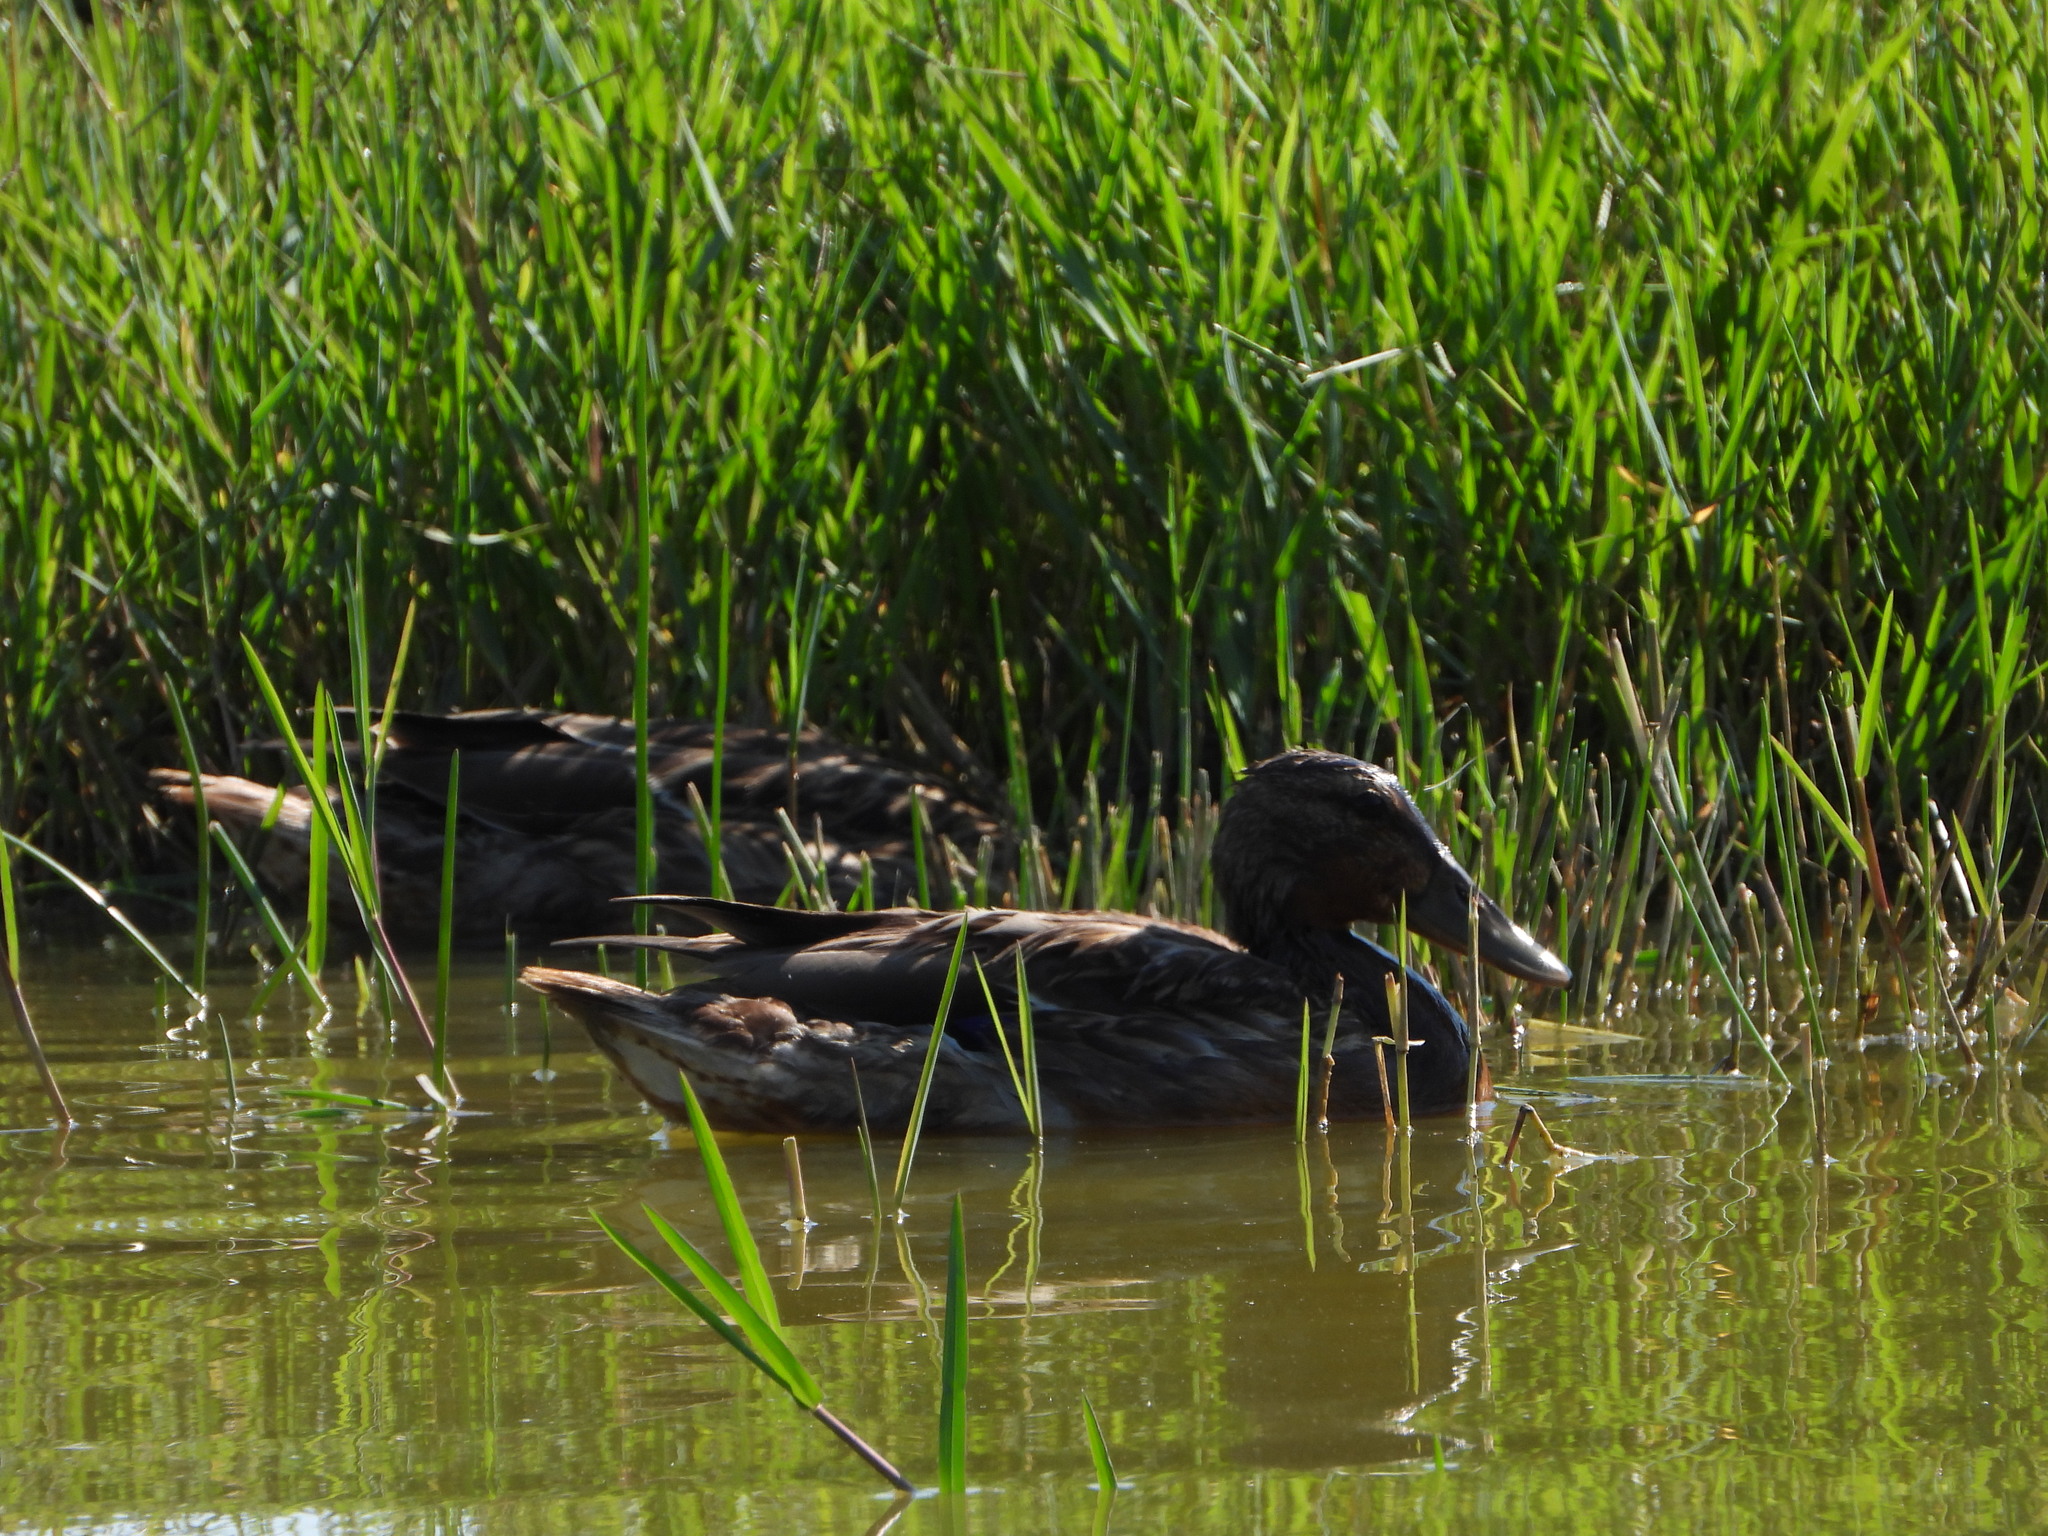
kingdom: Animalia
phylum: Chordata
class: Aves
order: Anseriformes
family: Anatidae
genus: Anas
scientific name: Anas platyrhynchos
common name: Mallard
